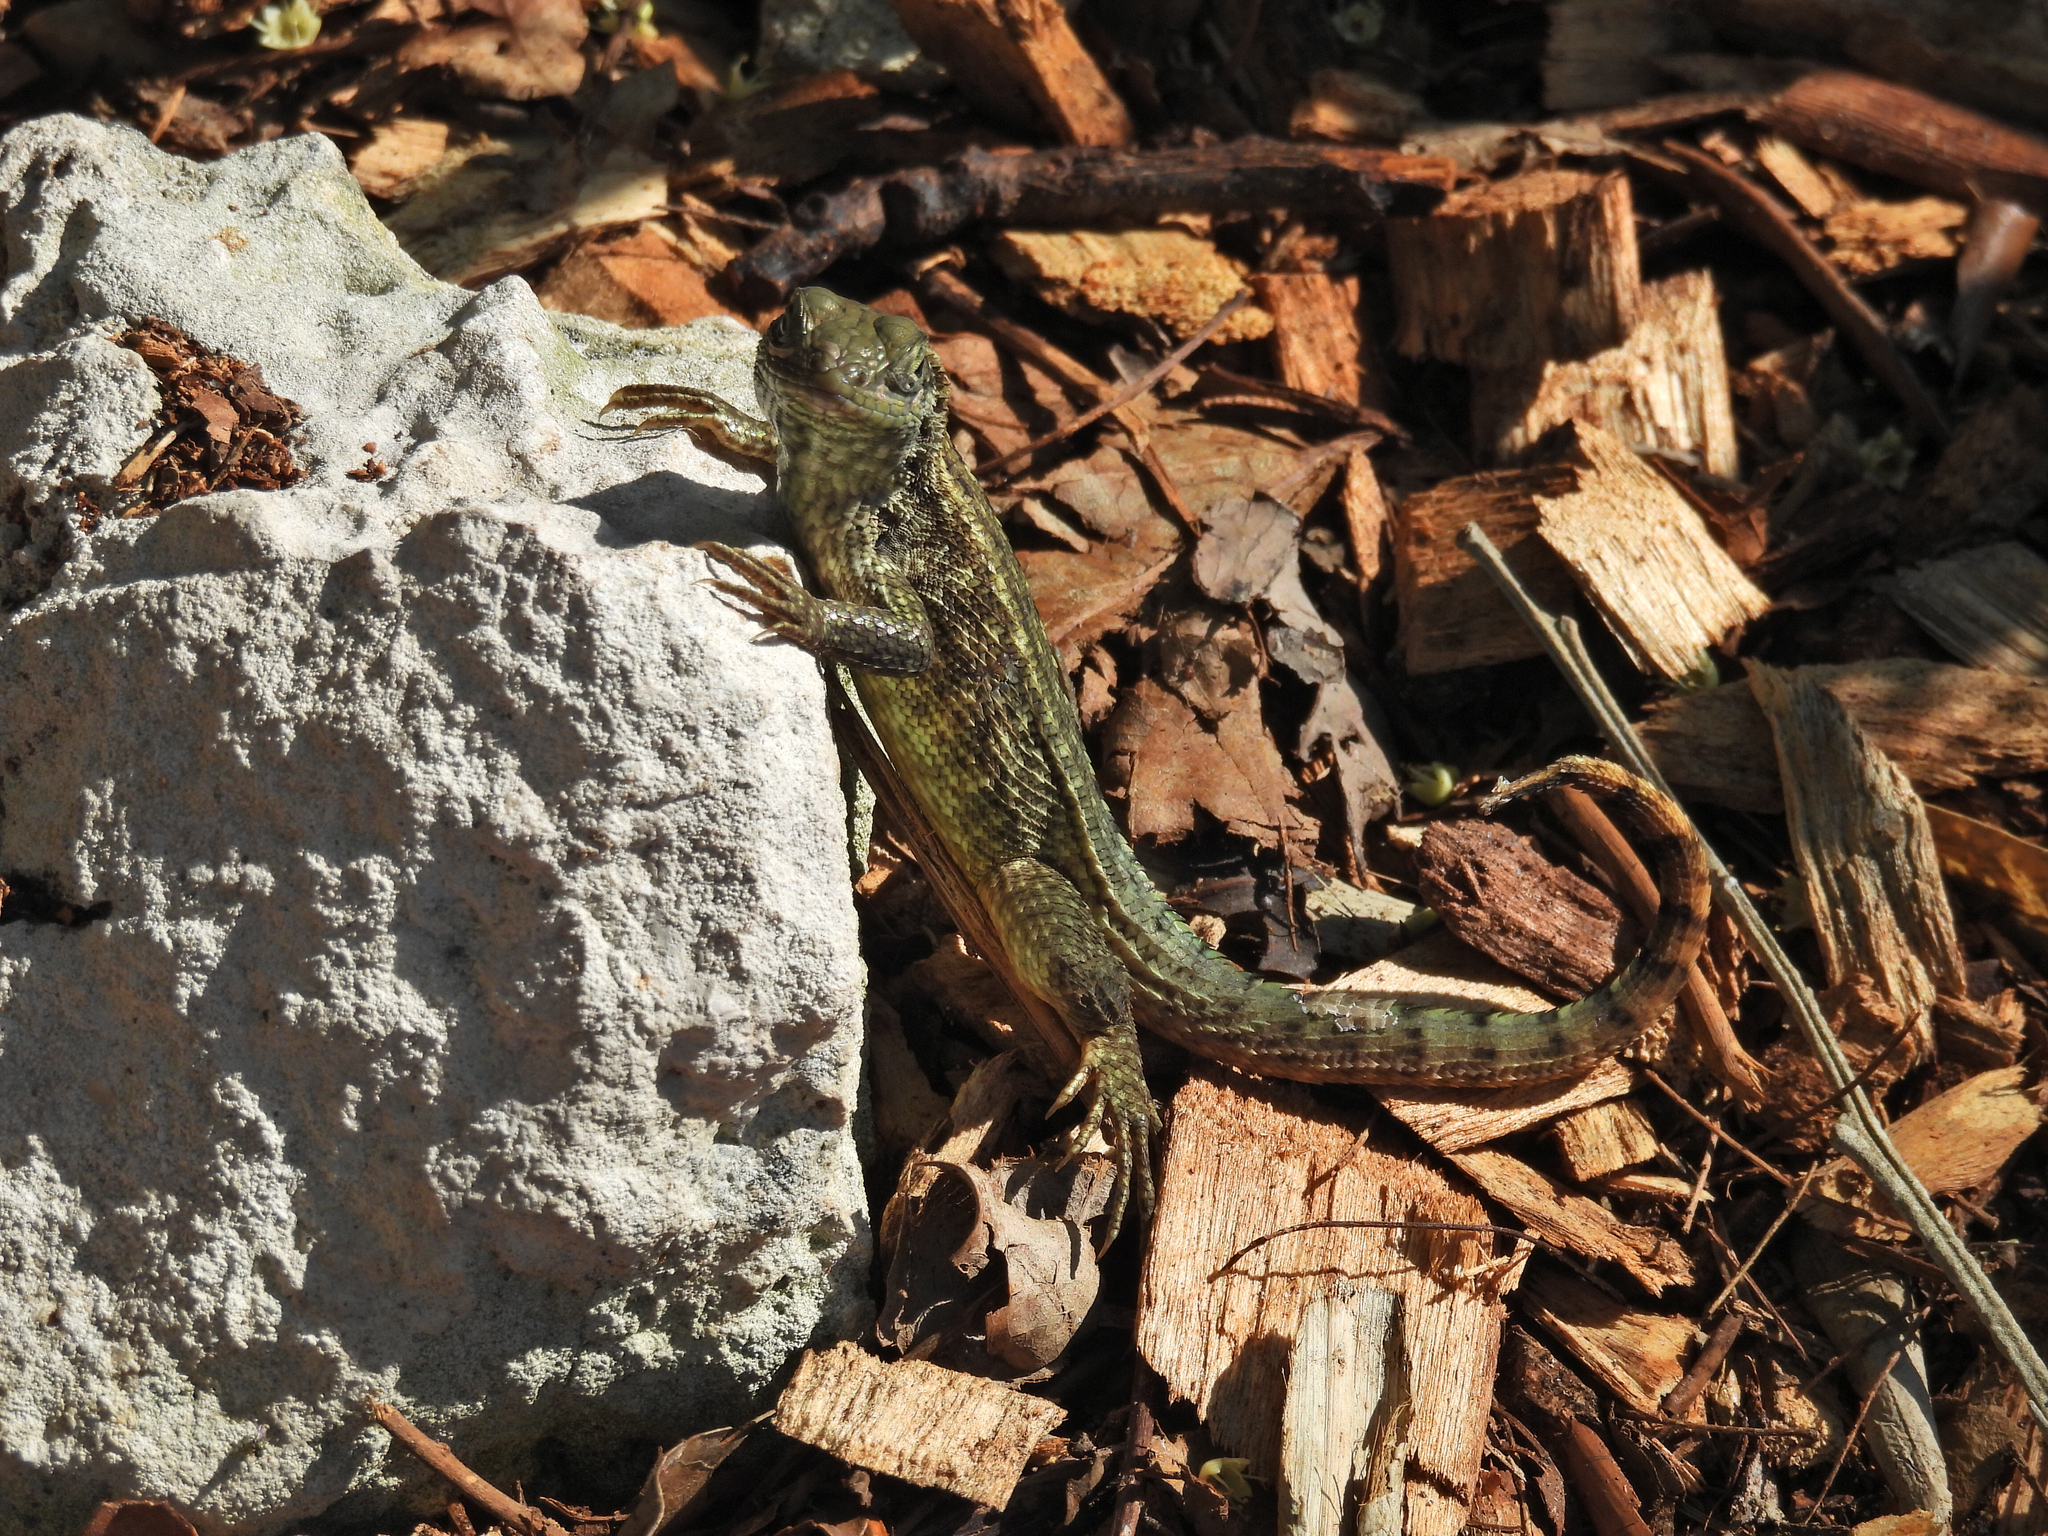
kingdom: Animalia
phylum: Chordata
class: Squamata
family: Leiocephalidae
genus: Leiocephalus
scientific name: Leiocephalus carinatus
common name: Northern curly-tailed lizard
